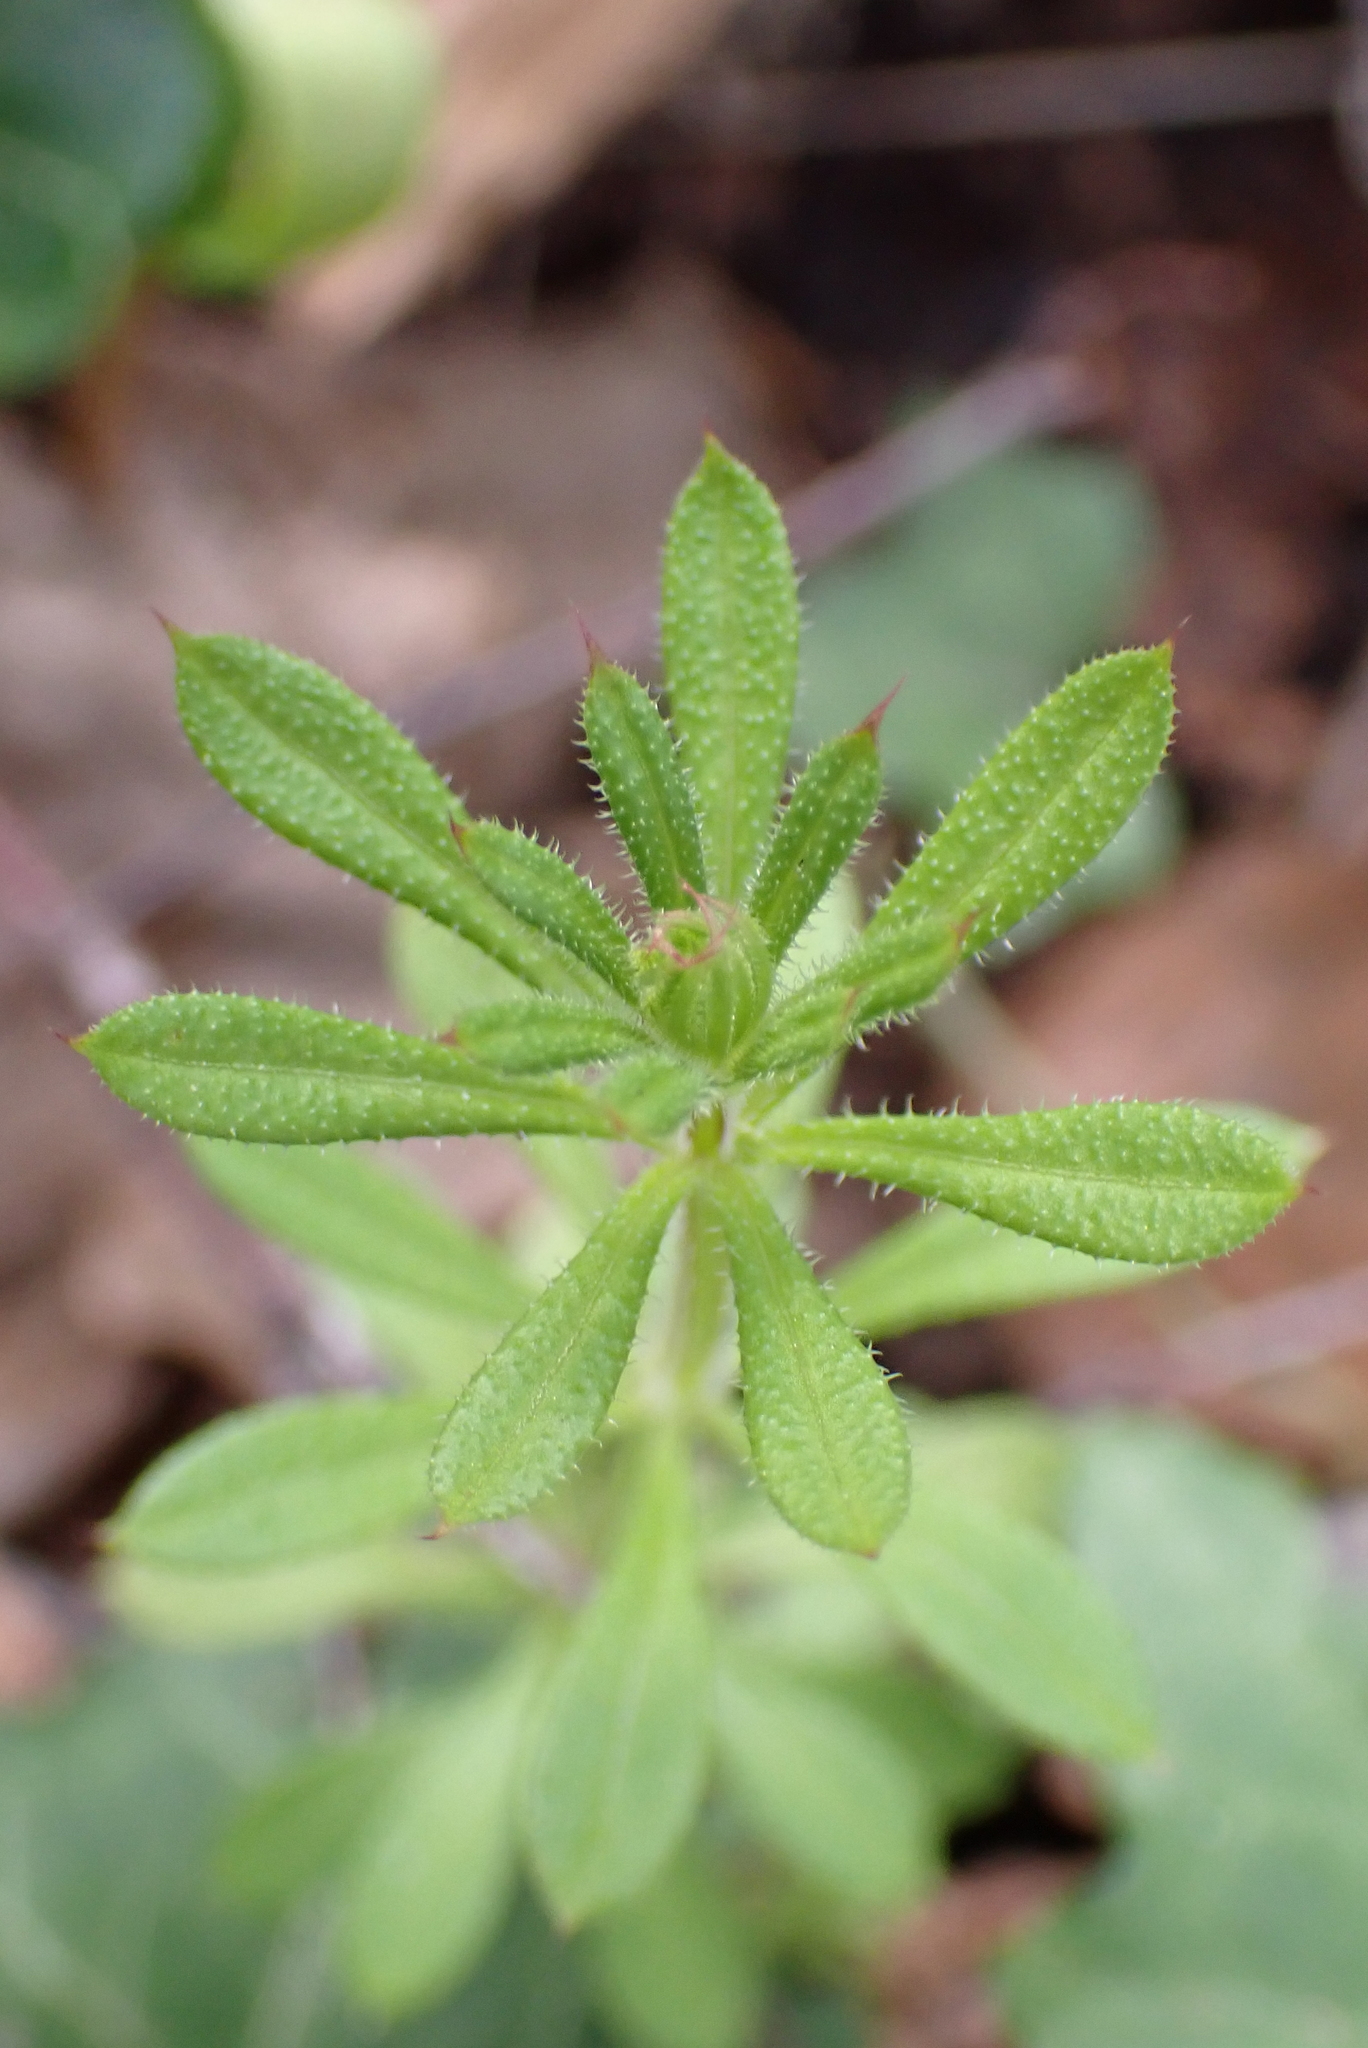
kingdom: Plantae
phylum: Tracheophyta
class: Magnoliopsida
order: Gentianales
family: Rubiaceae
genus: Galium
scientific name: Galium aparine
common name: Cleavers
